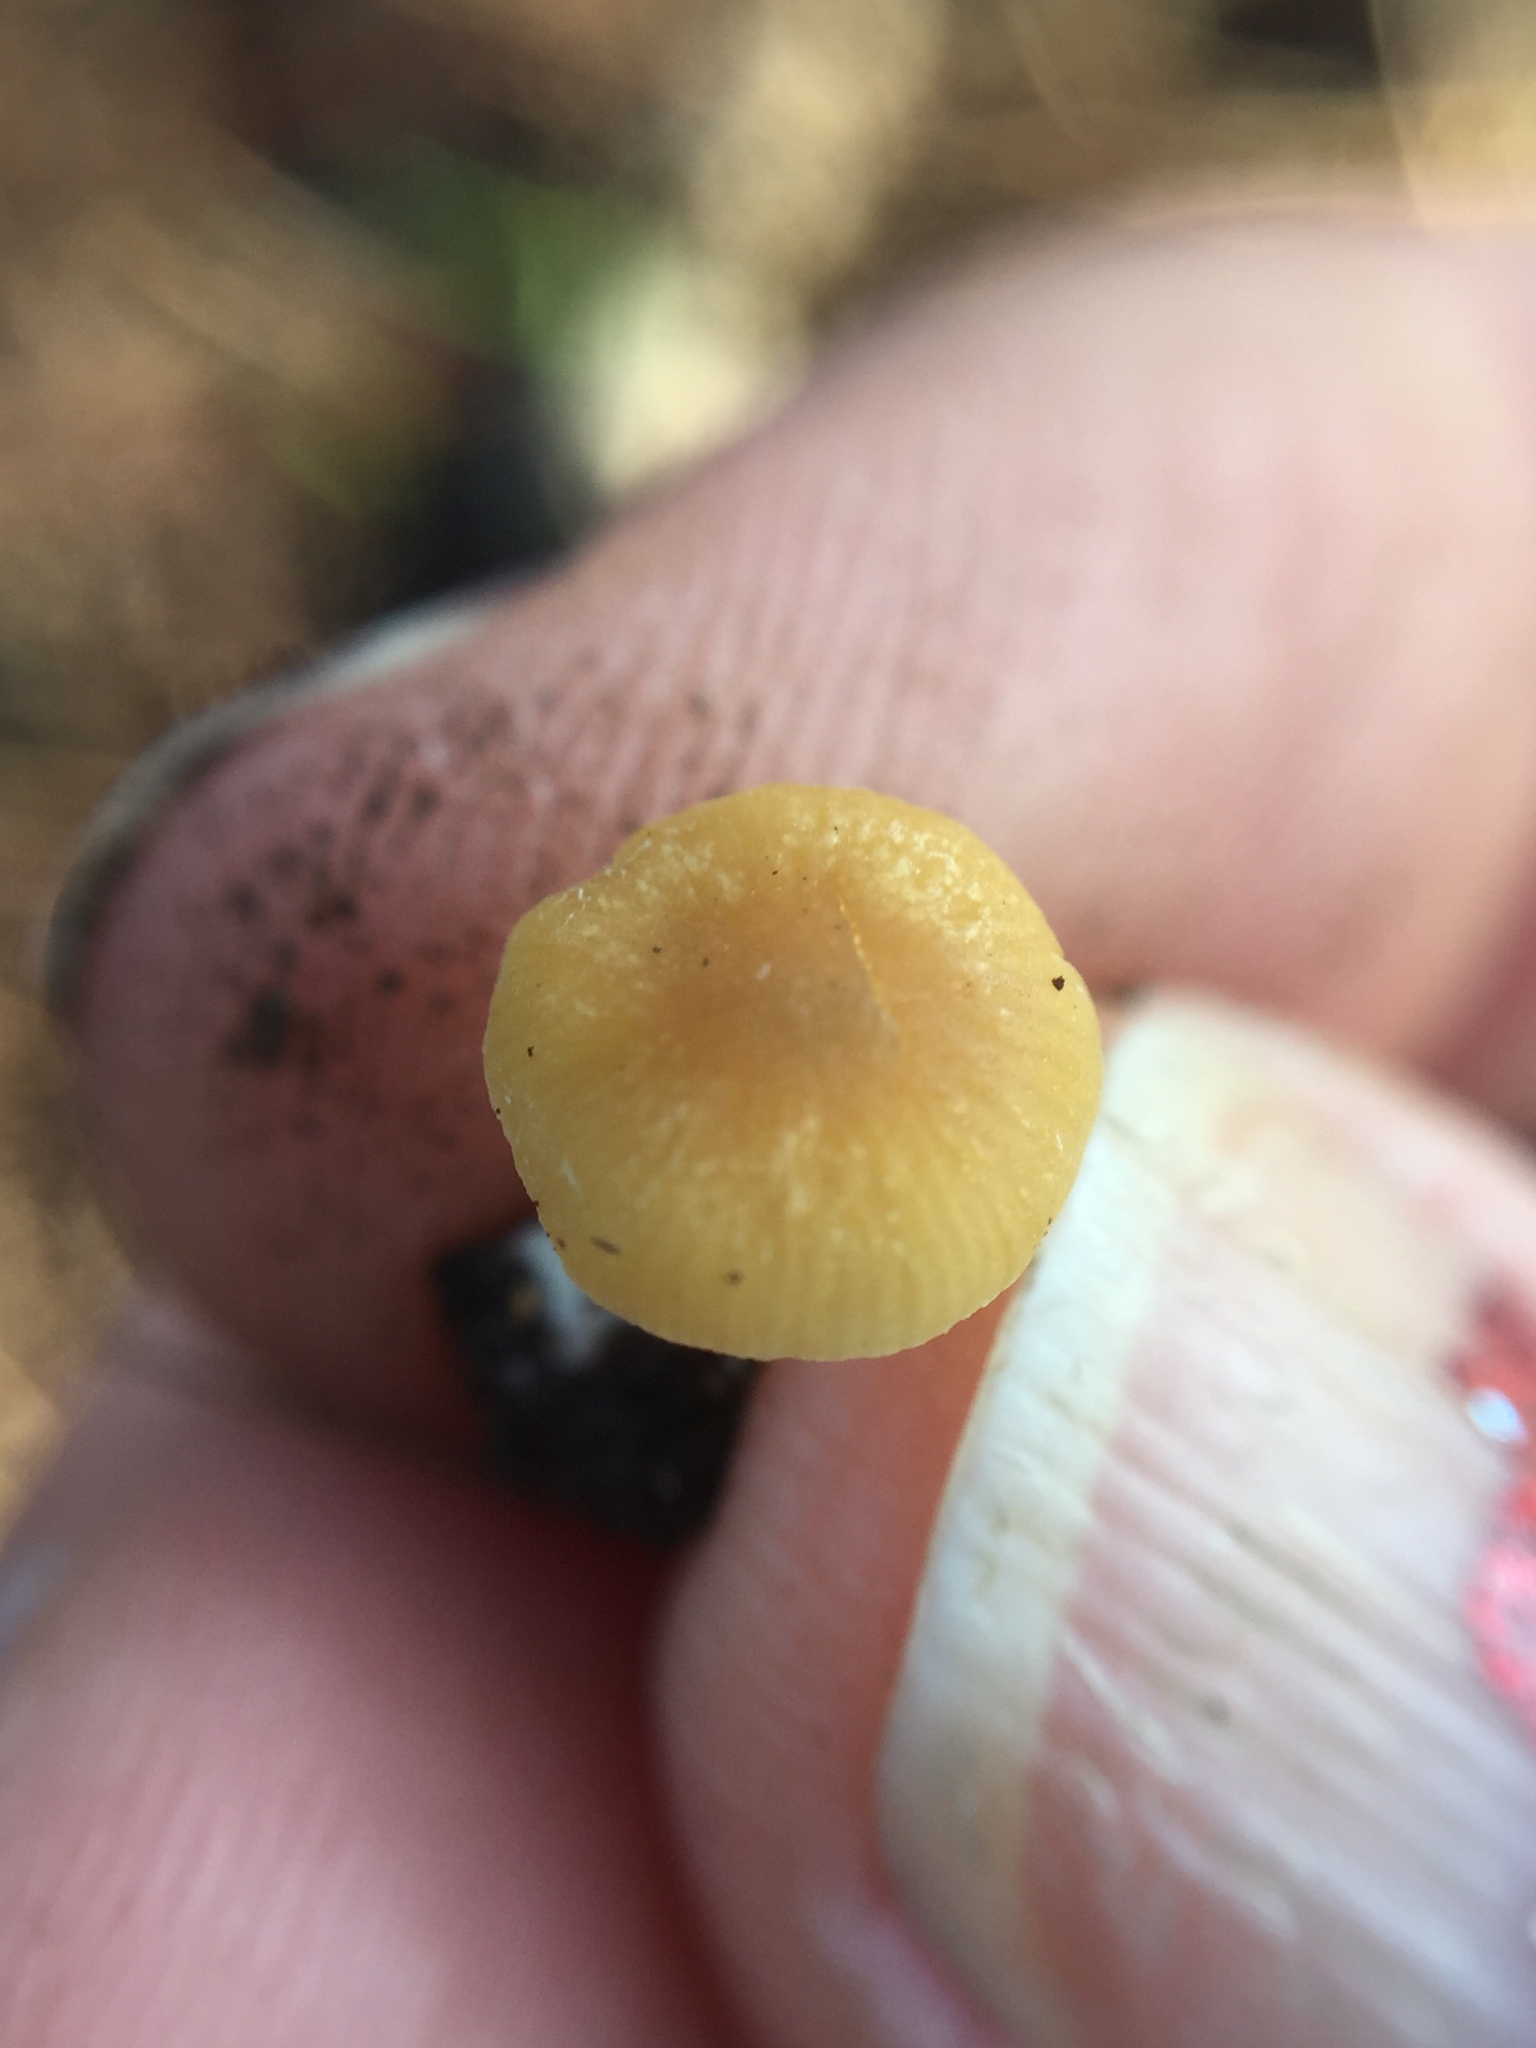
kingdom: Fungi
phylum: Basidiomycota
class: Agaricomycetes
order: Agaricales
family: Bolbitiaceae
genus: Conocybe
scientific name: Conocybe rugosa
